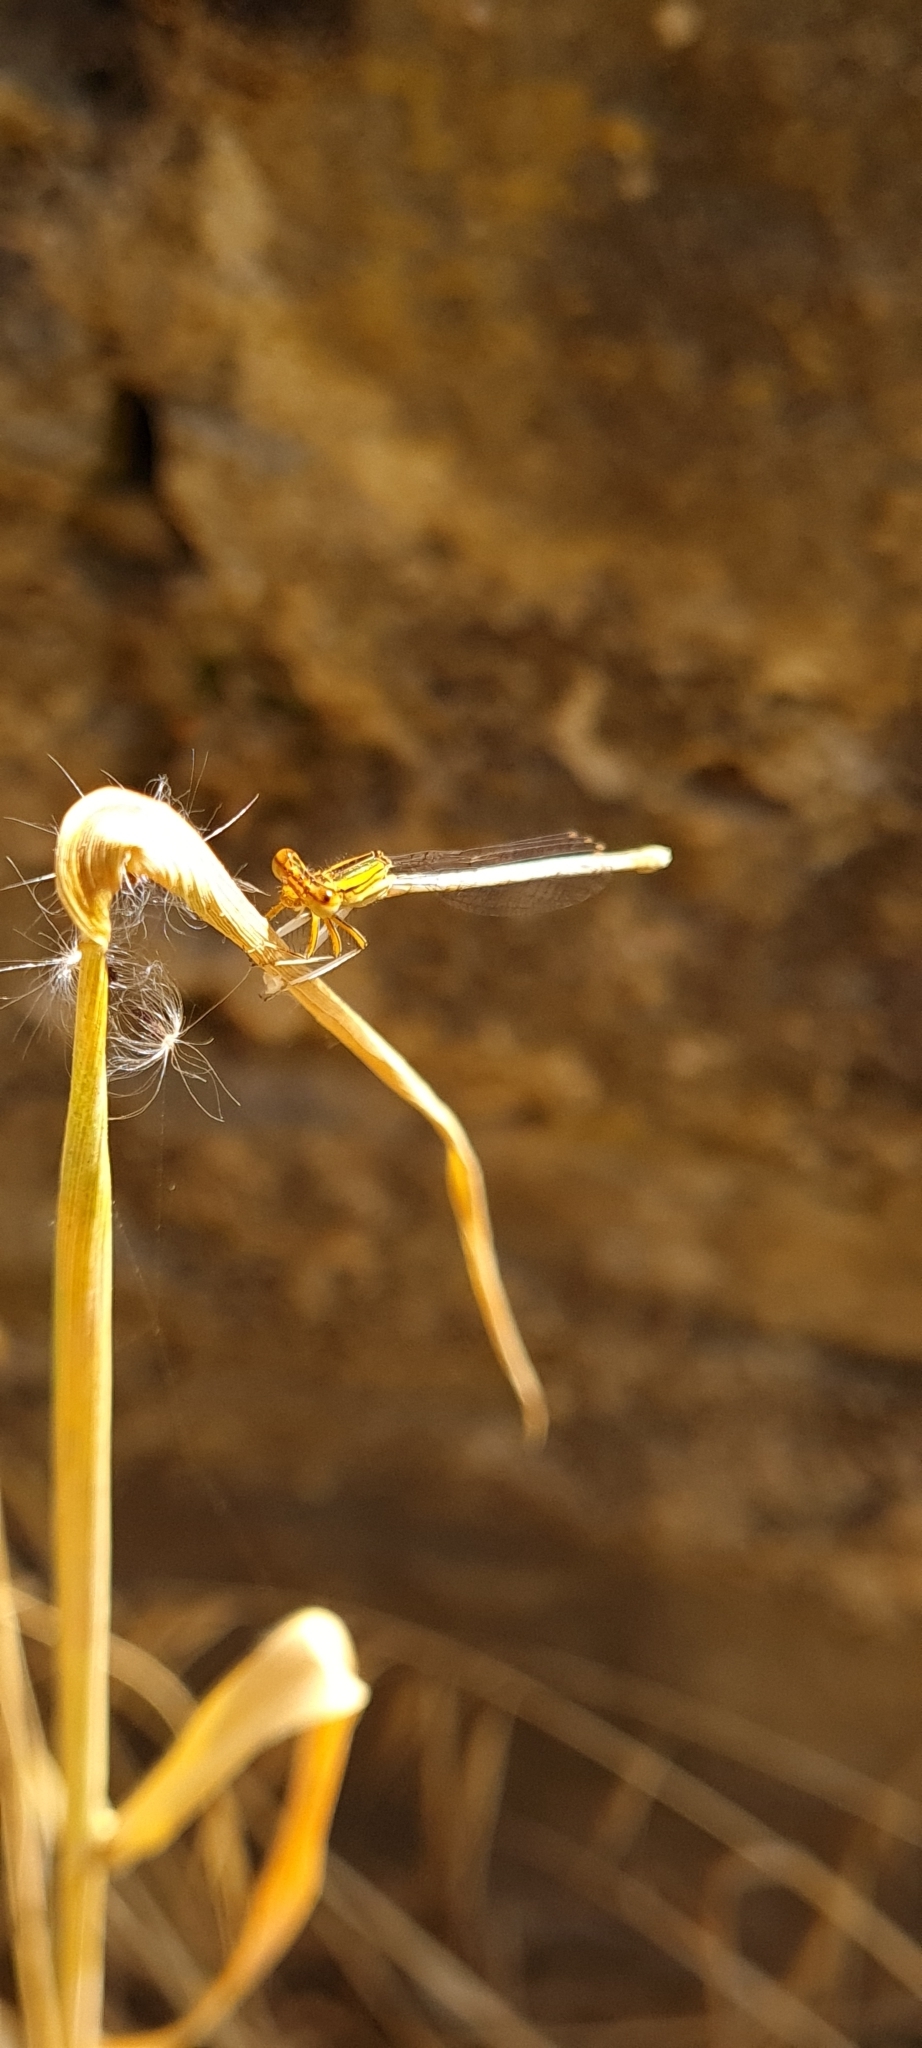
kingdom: Animalia
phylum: Arthropoda
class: Insecta
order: Odonata
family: Platycnemididae
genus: Platycnemis
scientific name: Platycnemis latipes
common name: White featherleg
